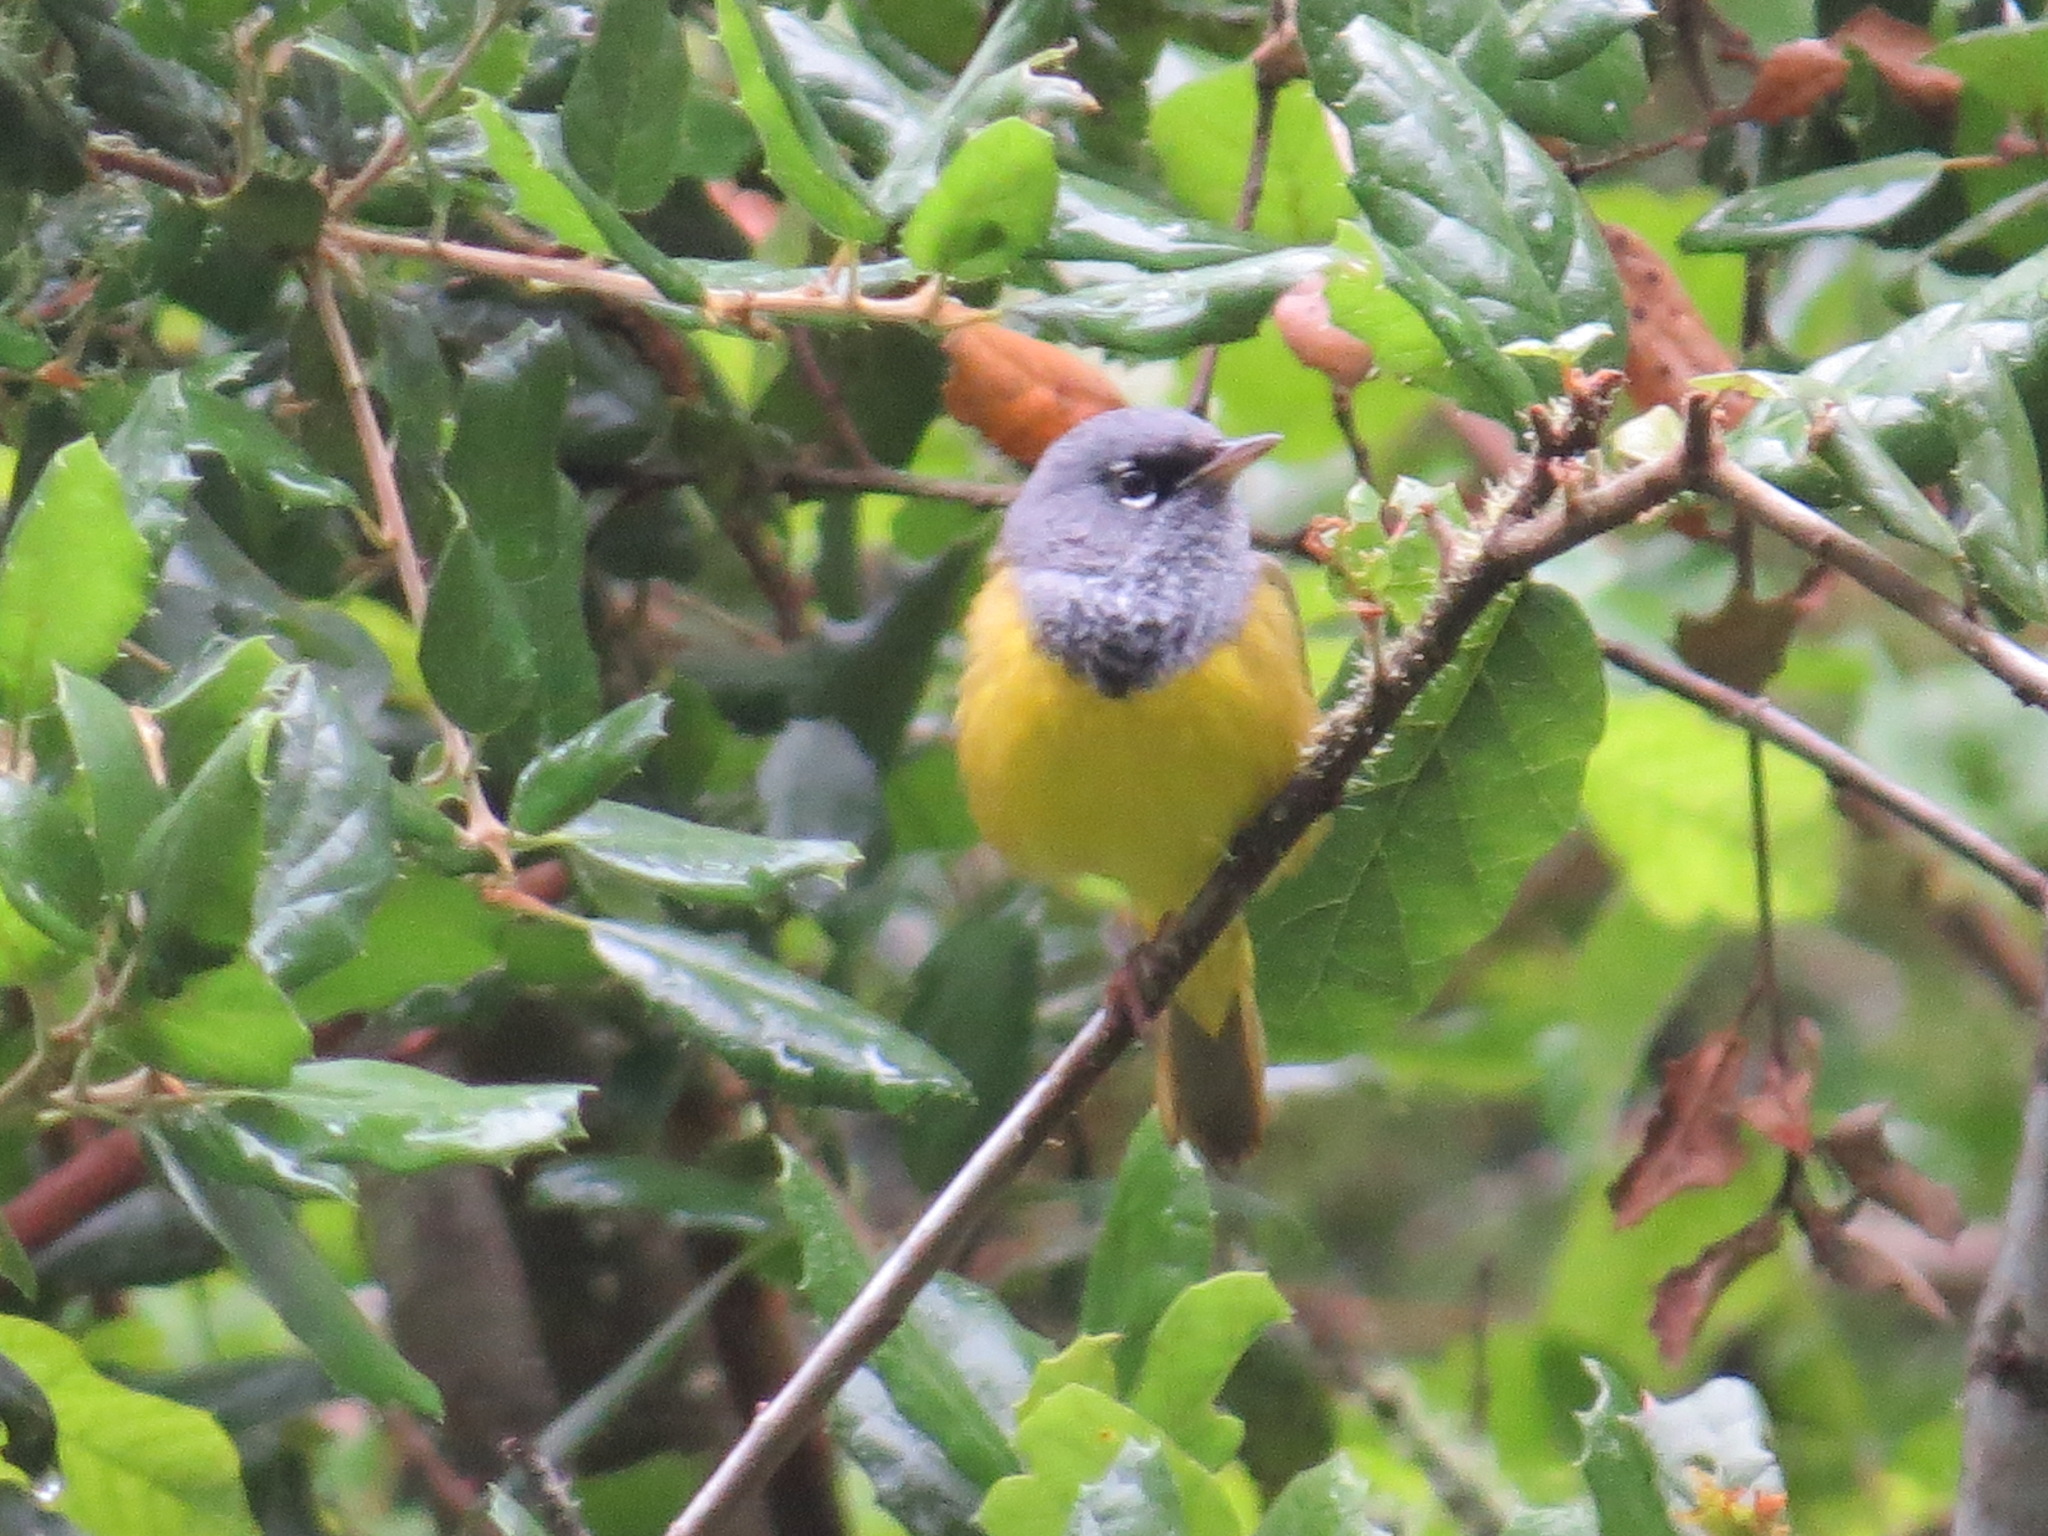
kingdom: Animalia
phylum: Chordata
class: Aves
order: Passeriformes
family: Parulidae
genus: Geothlypis
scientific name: Geothlypis tolmiei
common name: Macgillivray's warbler
